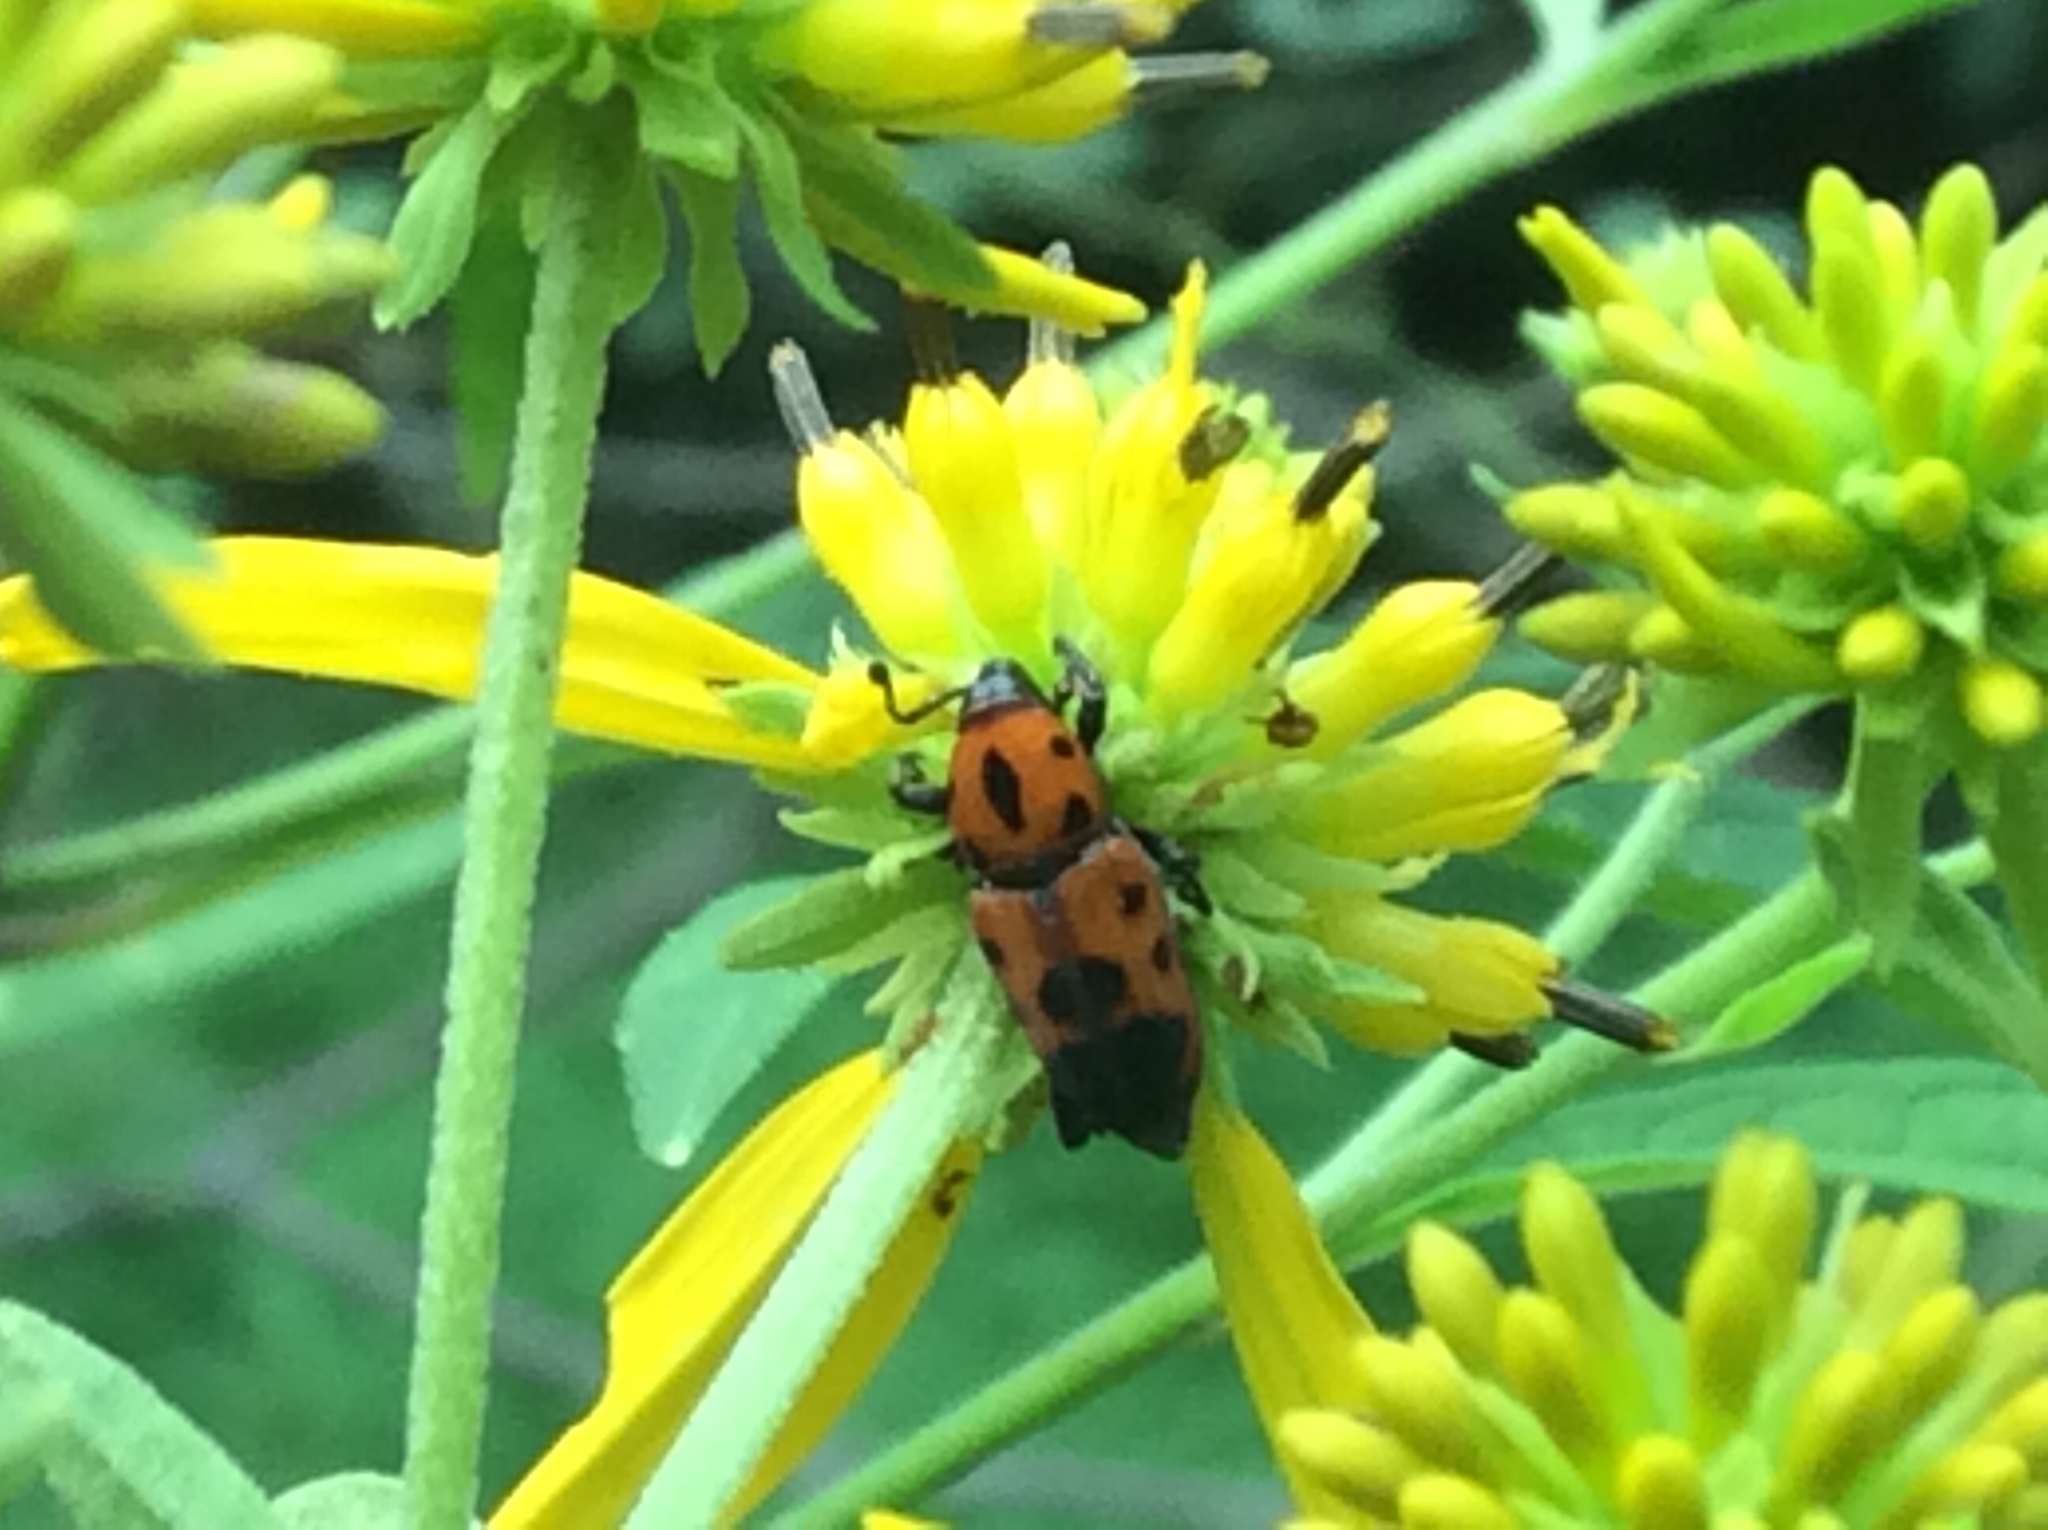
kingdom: Animalia
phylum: Arthropoda
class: Insecta
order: Coleoptera
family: Dryophthoridae
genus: Rhodobaenus
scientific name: Rhodobaenus quinquepunctatus
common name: Cocklebur weevil
